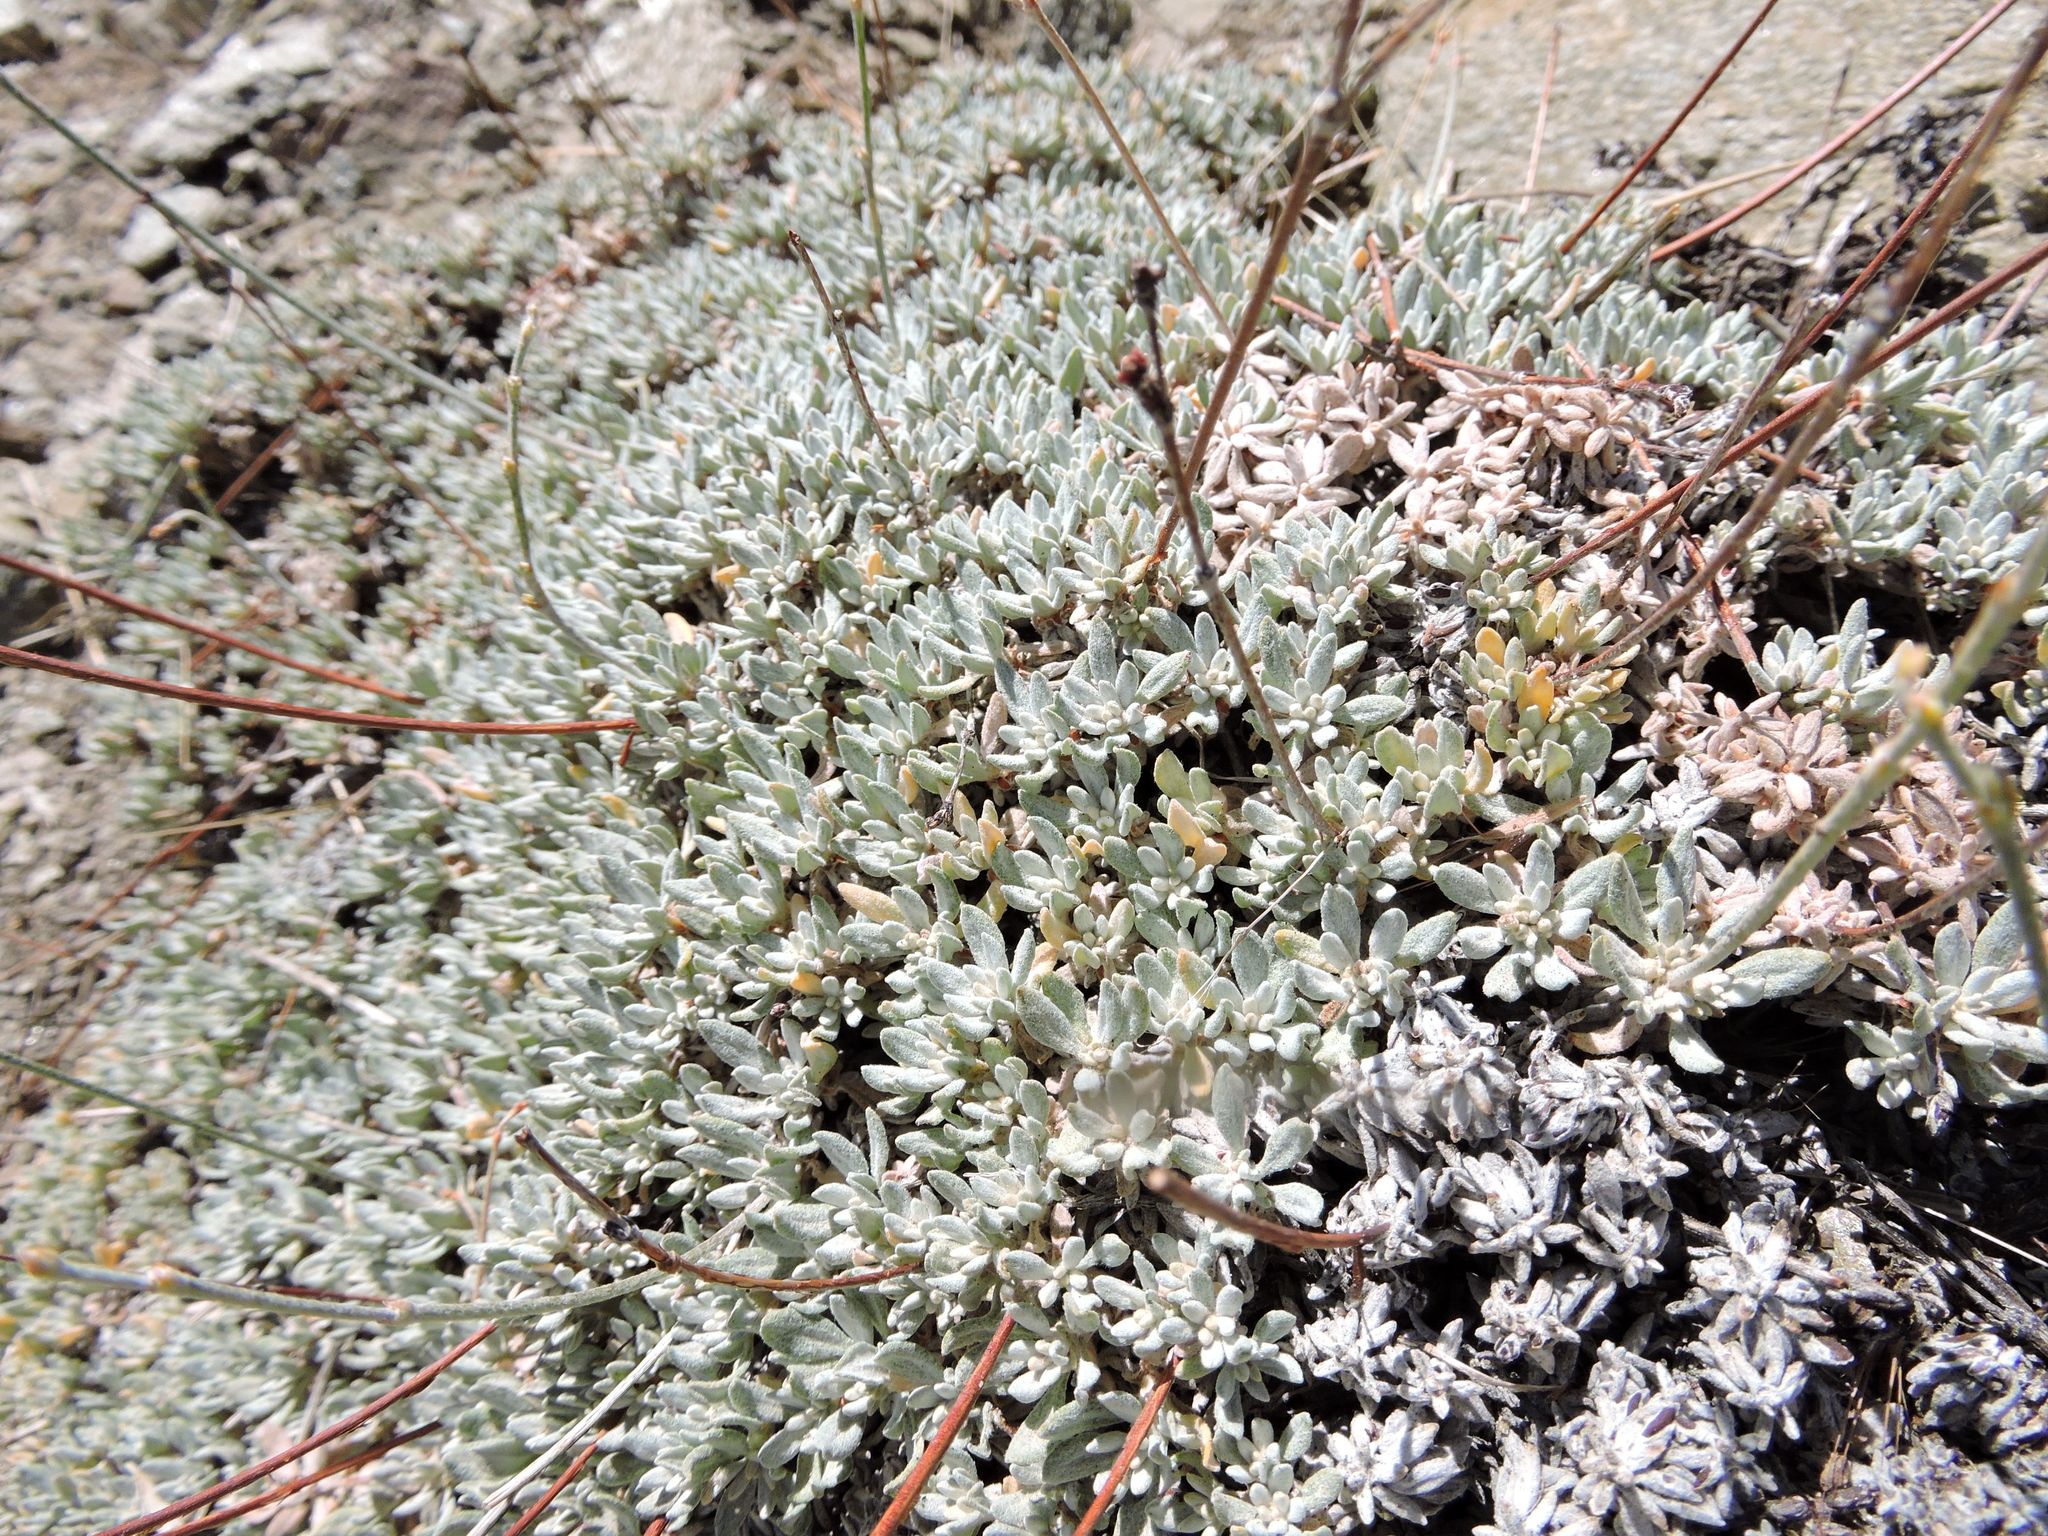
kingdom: Plantae
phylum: Tracheophyta
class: Magnoliopsida
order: Caryophyllales
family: Polygonaceae
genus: Eriogonum
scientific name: Eriogonum wrightii
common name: Bastard-sage
